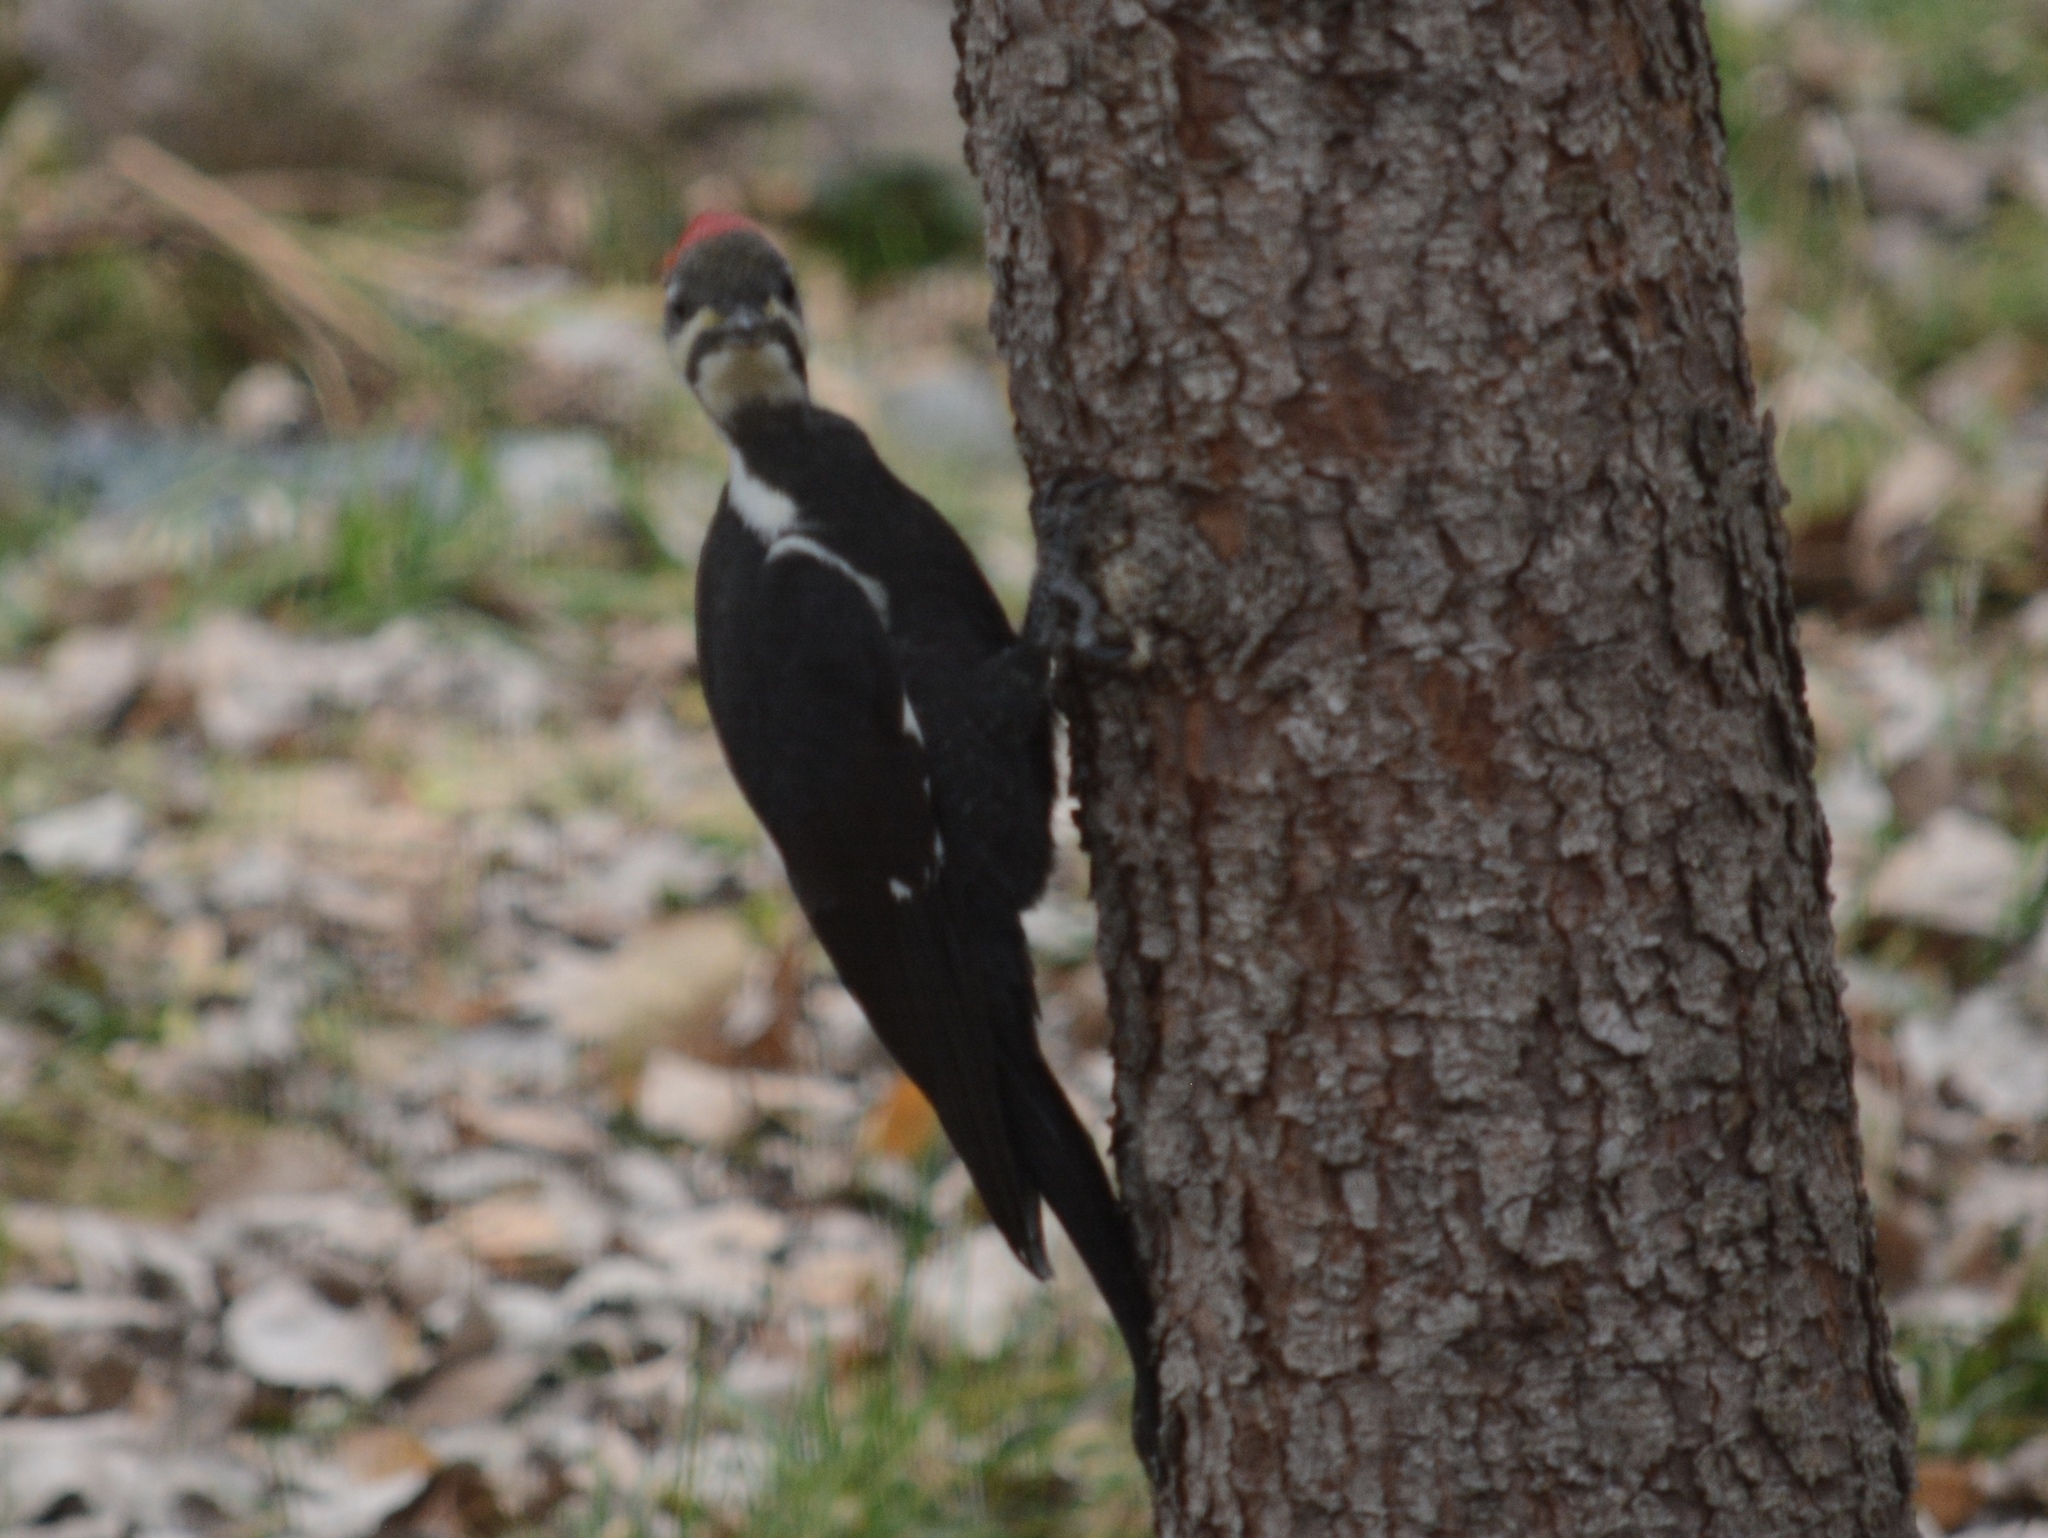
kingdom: Animalia
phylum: Chordata
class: Aves
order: Piciformes
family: Picidae
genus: Dryocopus
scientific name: Dryocopus pileatus
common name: Pileated woodpecker
